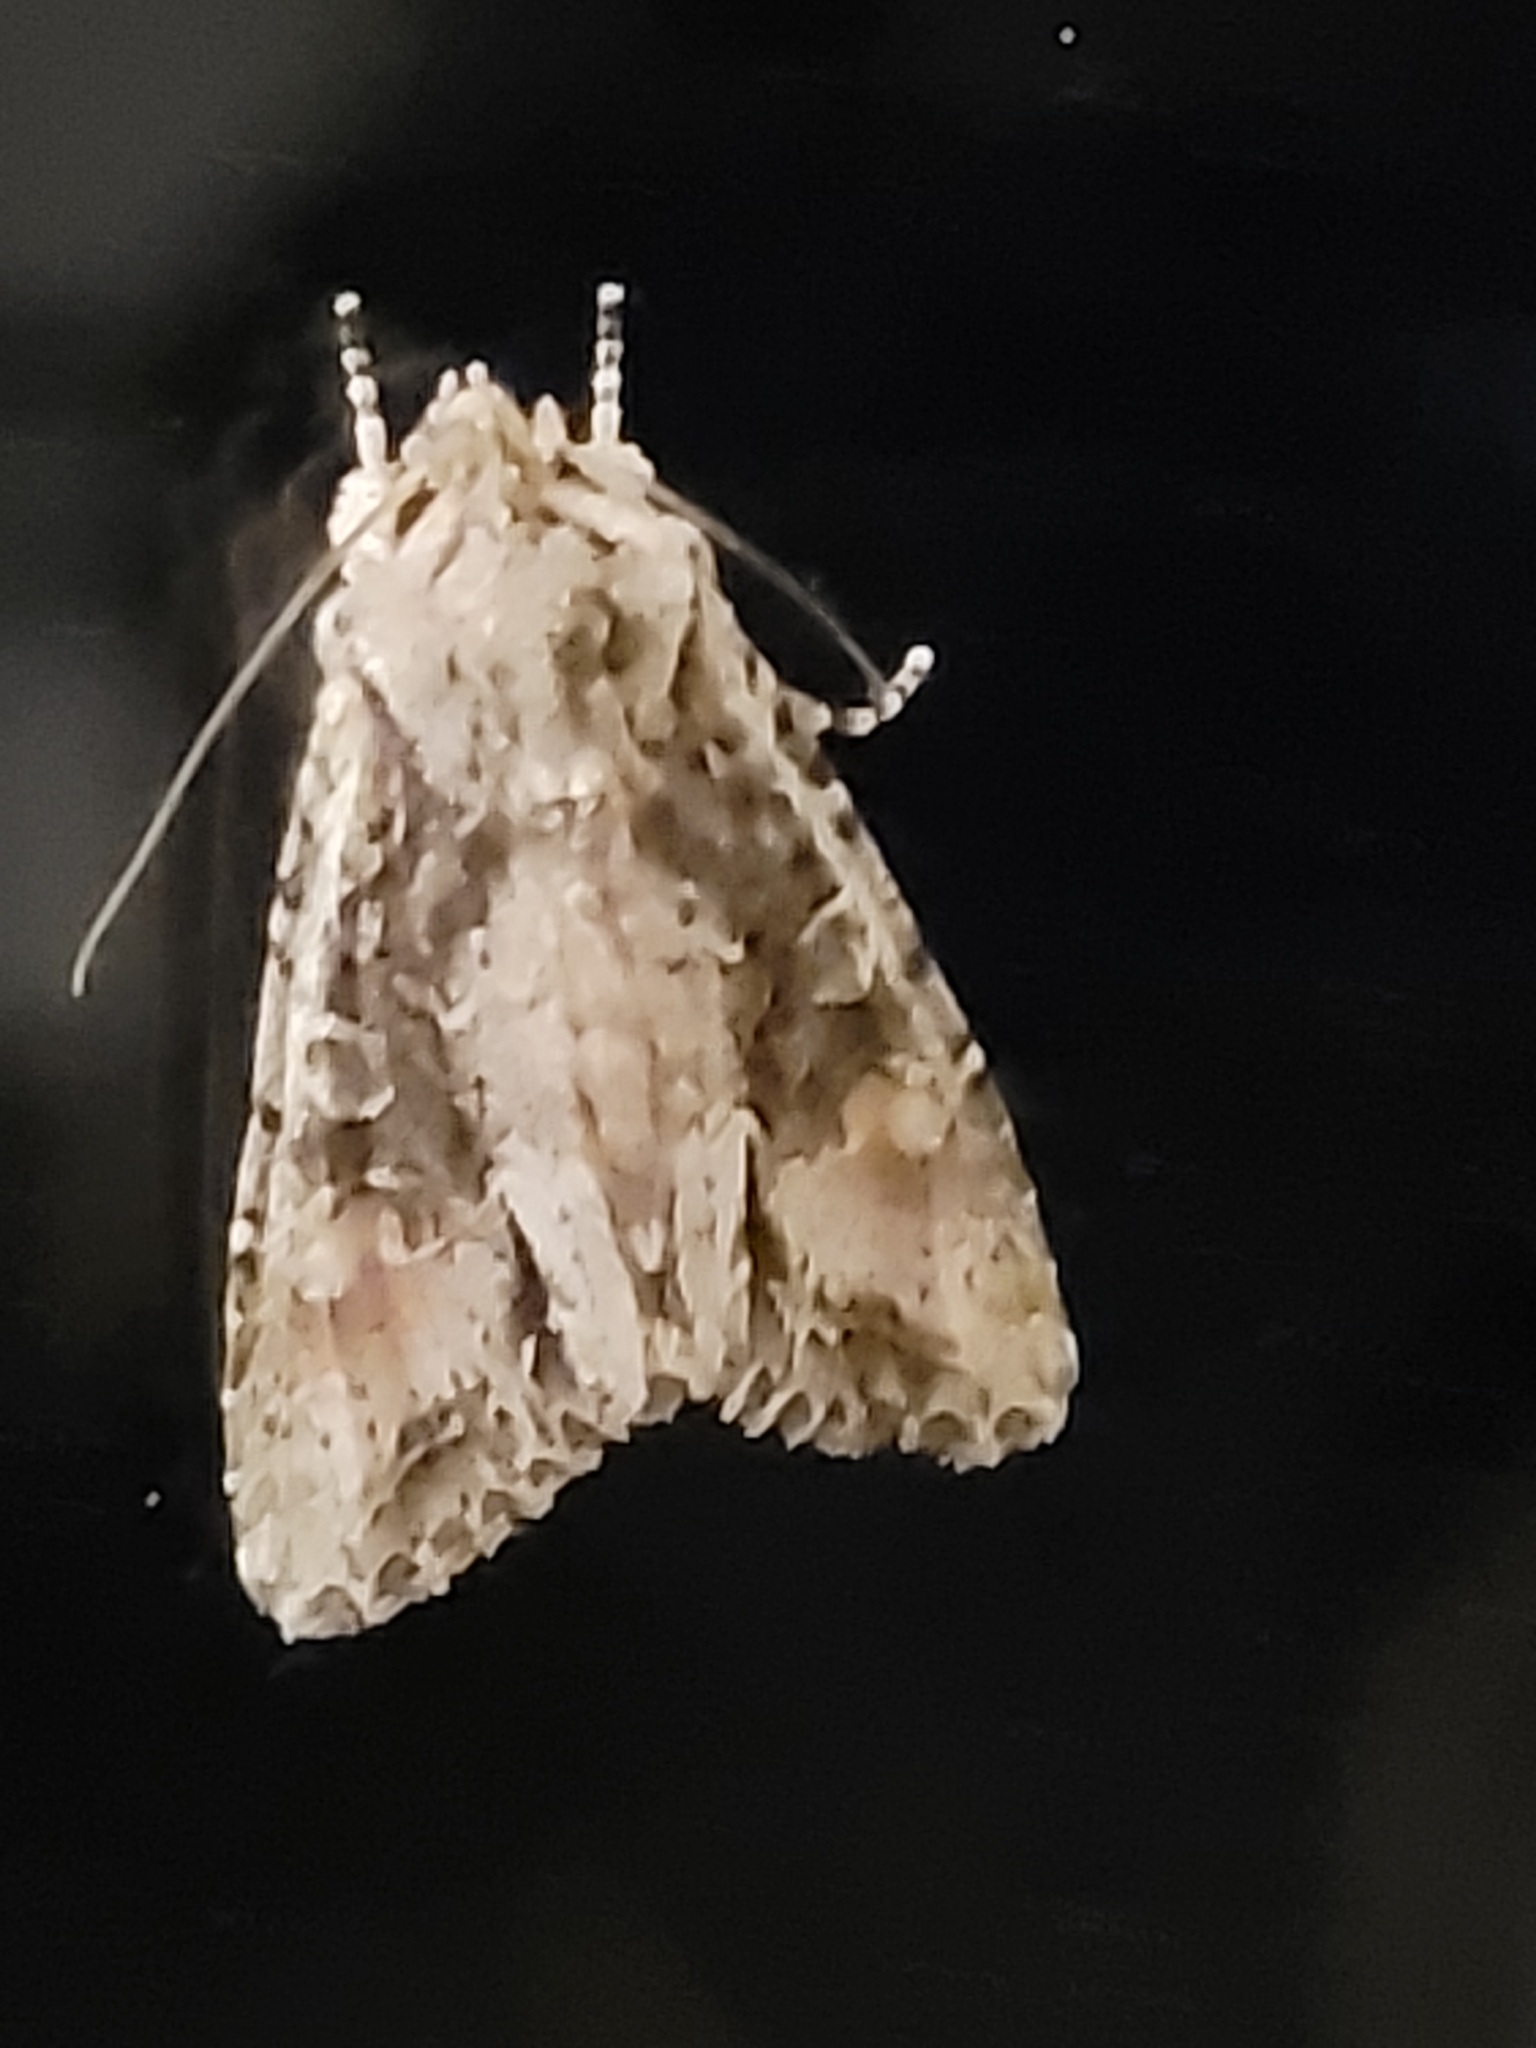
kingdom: Animalia
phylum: Arthropoda
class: Insecta
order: Lepidoptera
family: Noctuidae
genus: Ichneutica
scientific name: Ichneutica mutans
